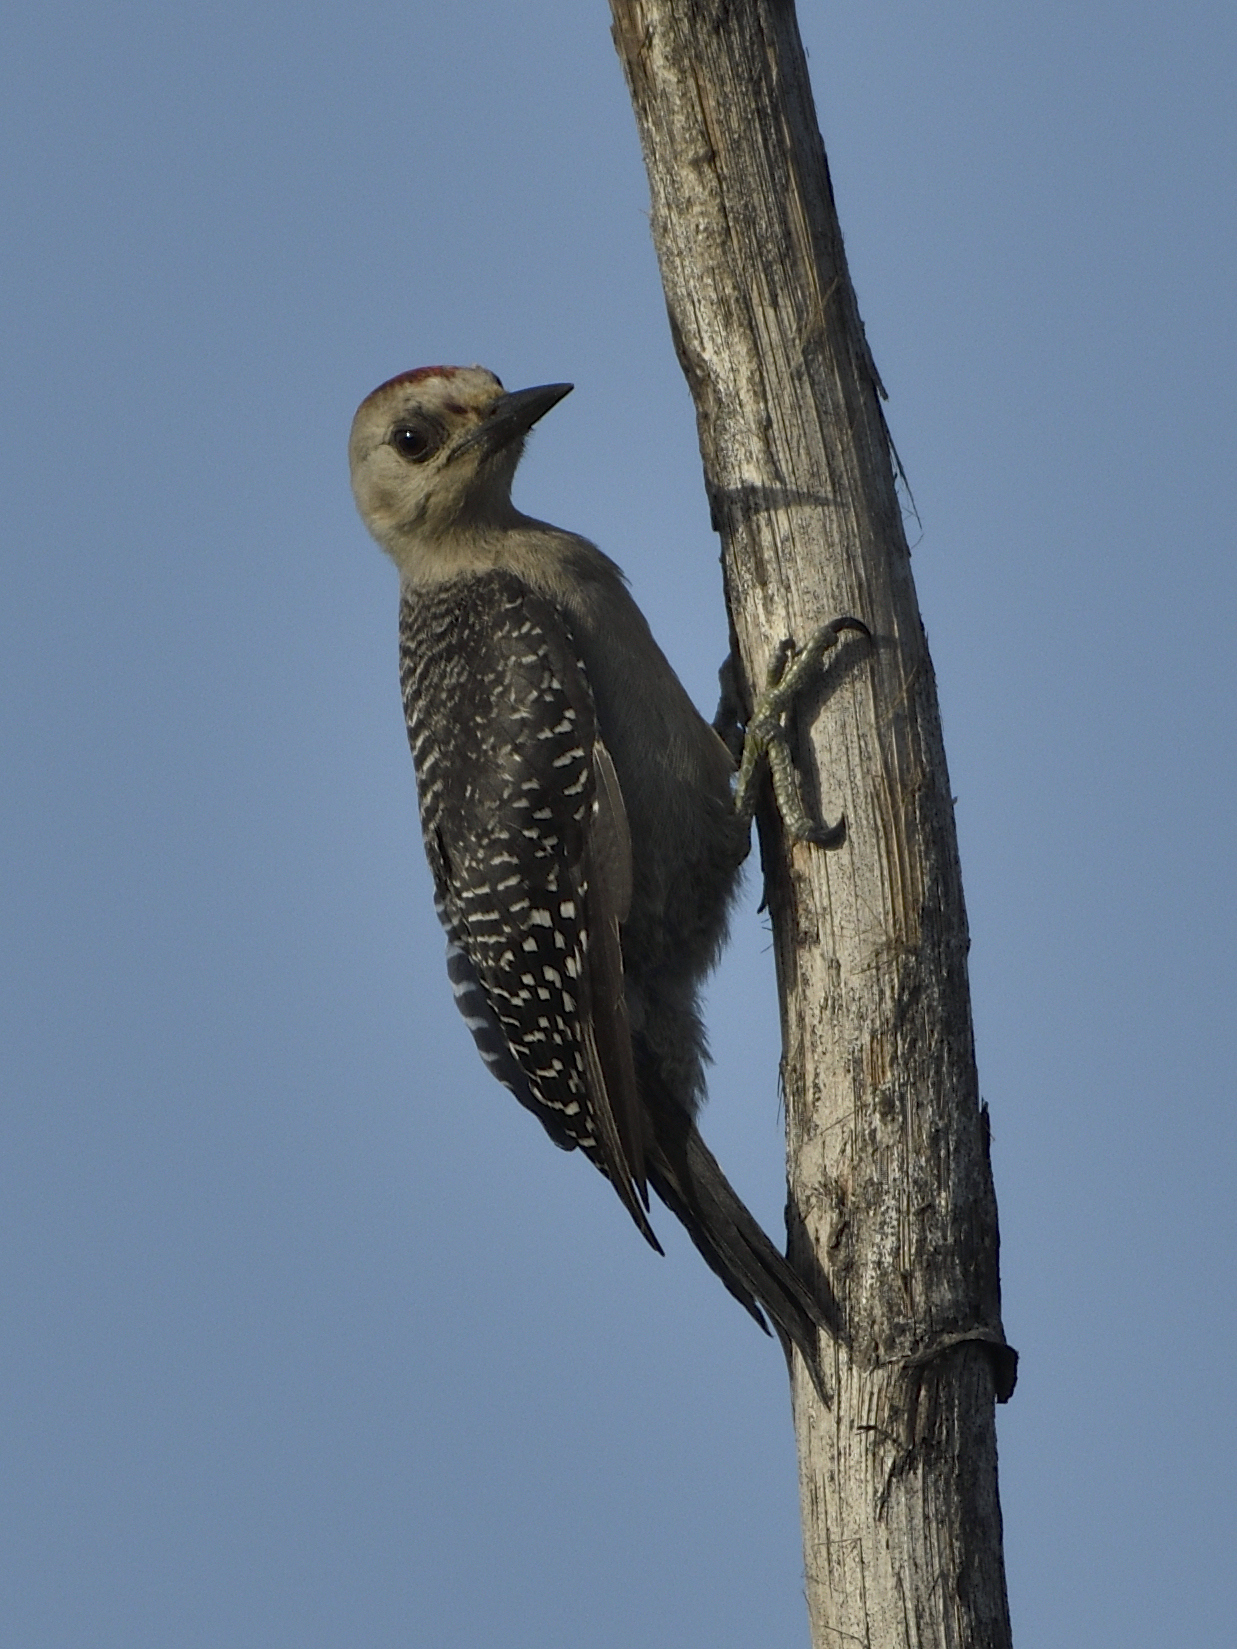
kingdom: Animalia
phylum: Chordata
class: Aves
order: Piciformes
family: Picidae
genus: Melanerpes
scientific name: Melanerpes pygmaeus
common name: Yucatan woodpecker
